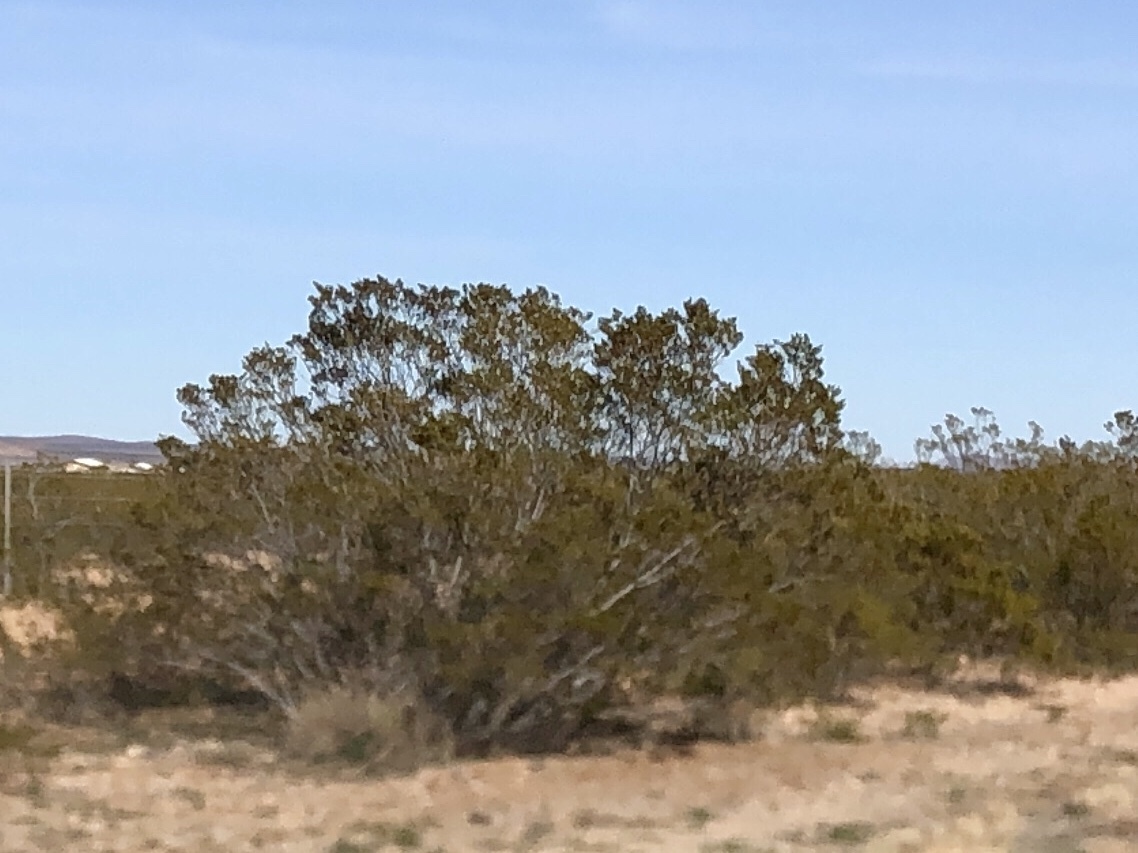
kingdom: Plantae
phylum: Tracheophyta
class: Magnoliopsida
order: Zygophyllales
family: Zygophyllaceae
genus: Larrea
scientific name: Larrea tridentata
